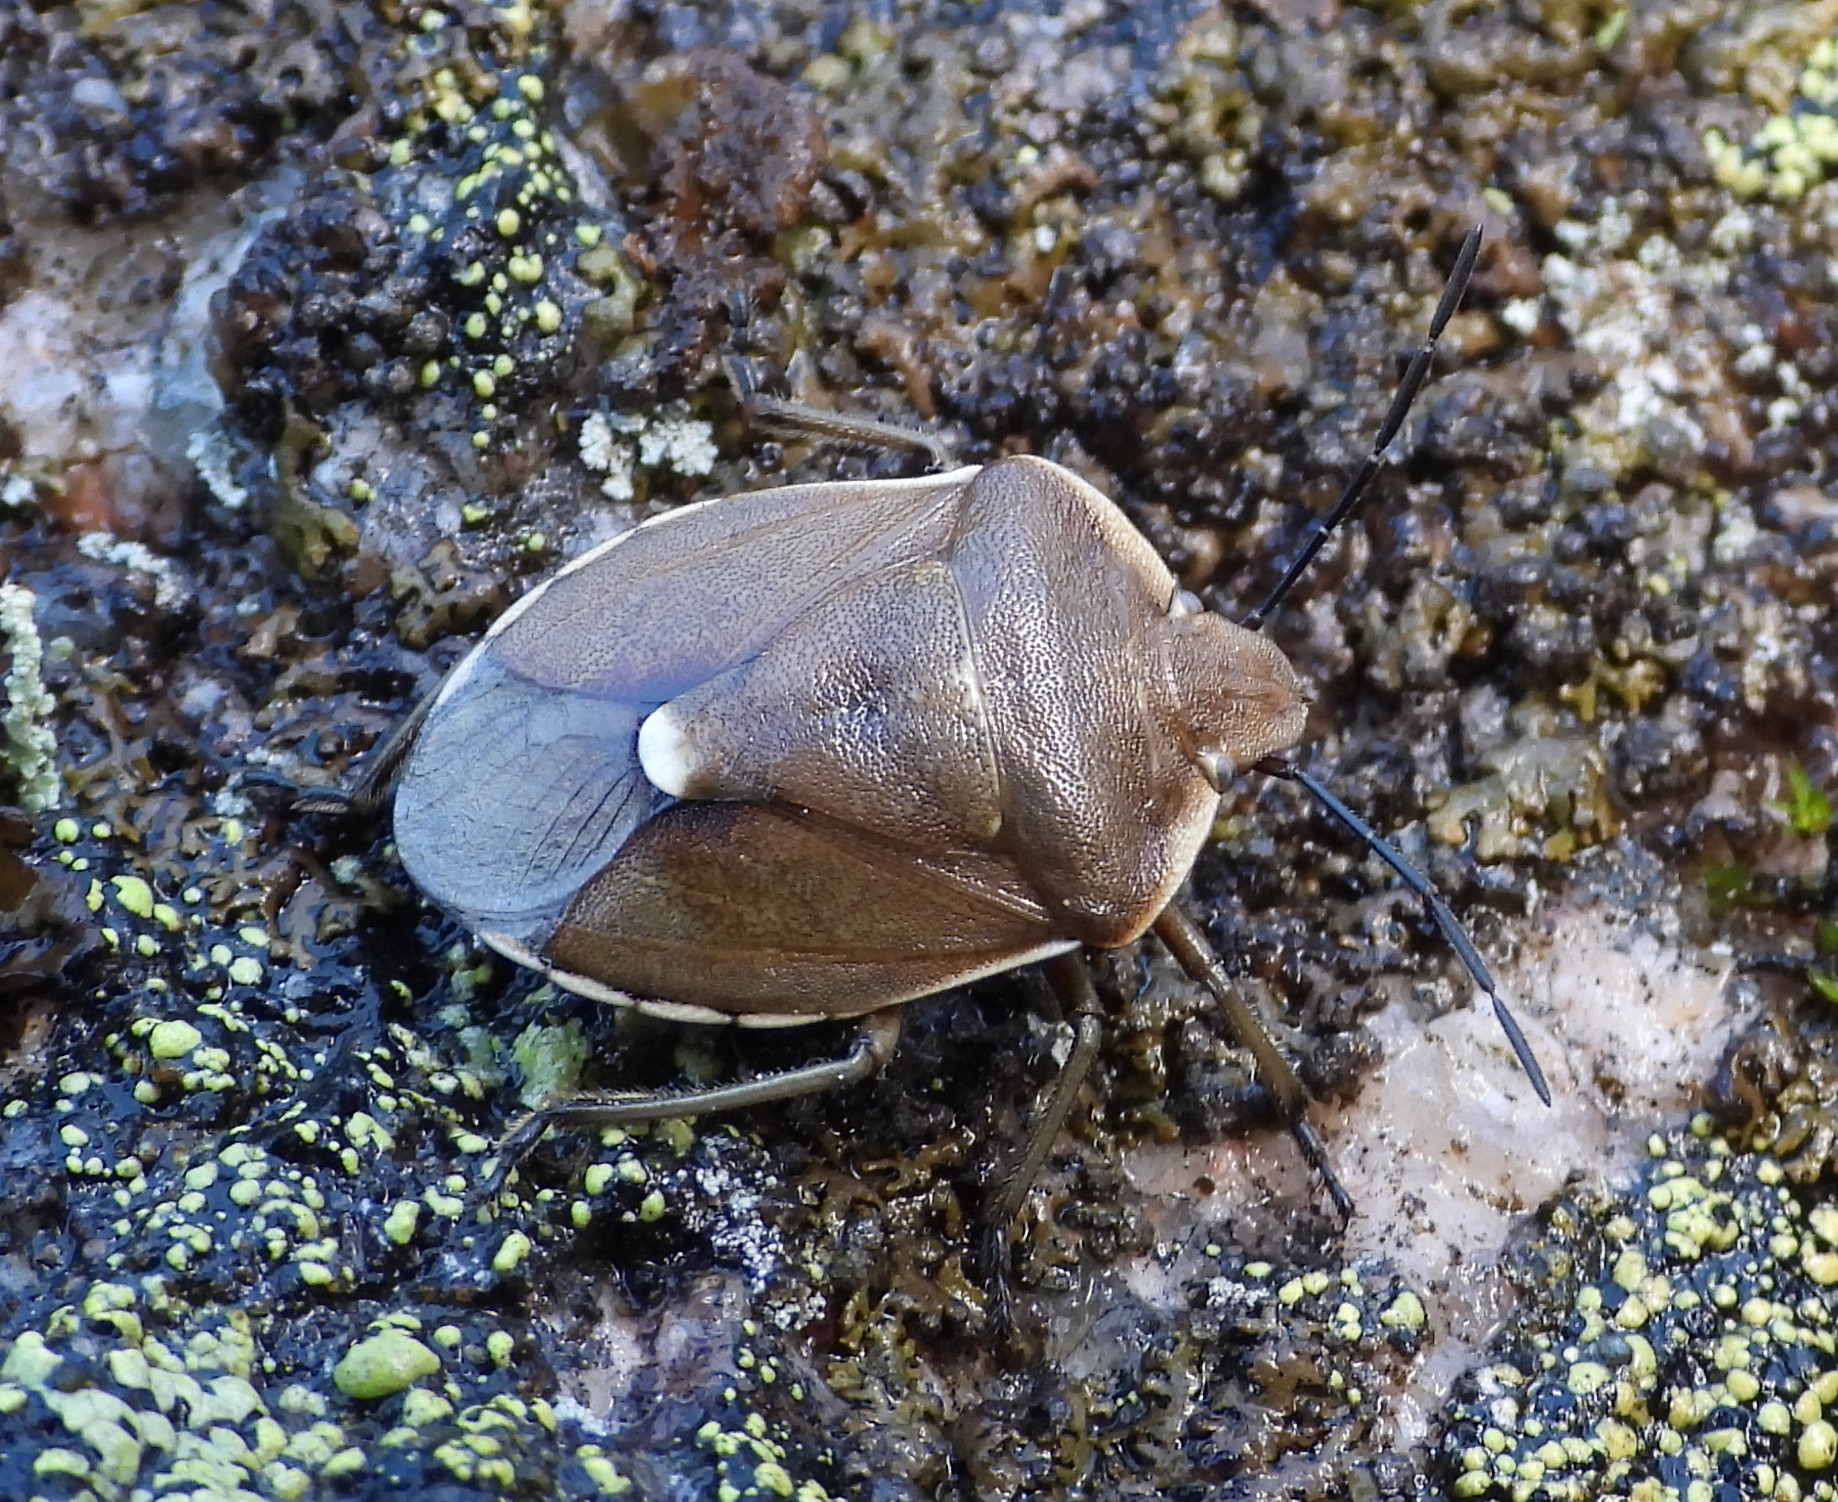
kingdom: Animalia
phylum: Arthropoda
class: Insecta
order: Hemiptera
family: Pentatomidae
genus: Chlorochroa
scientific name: Chlorochroa pinicola
